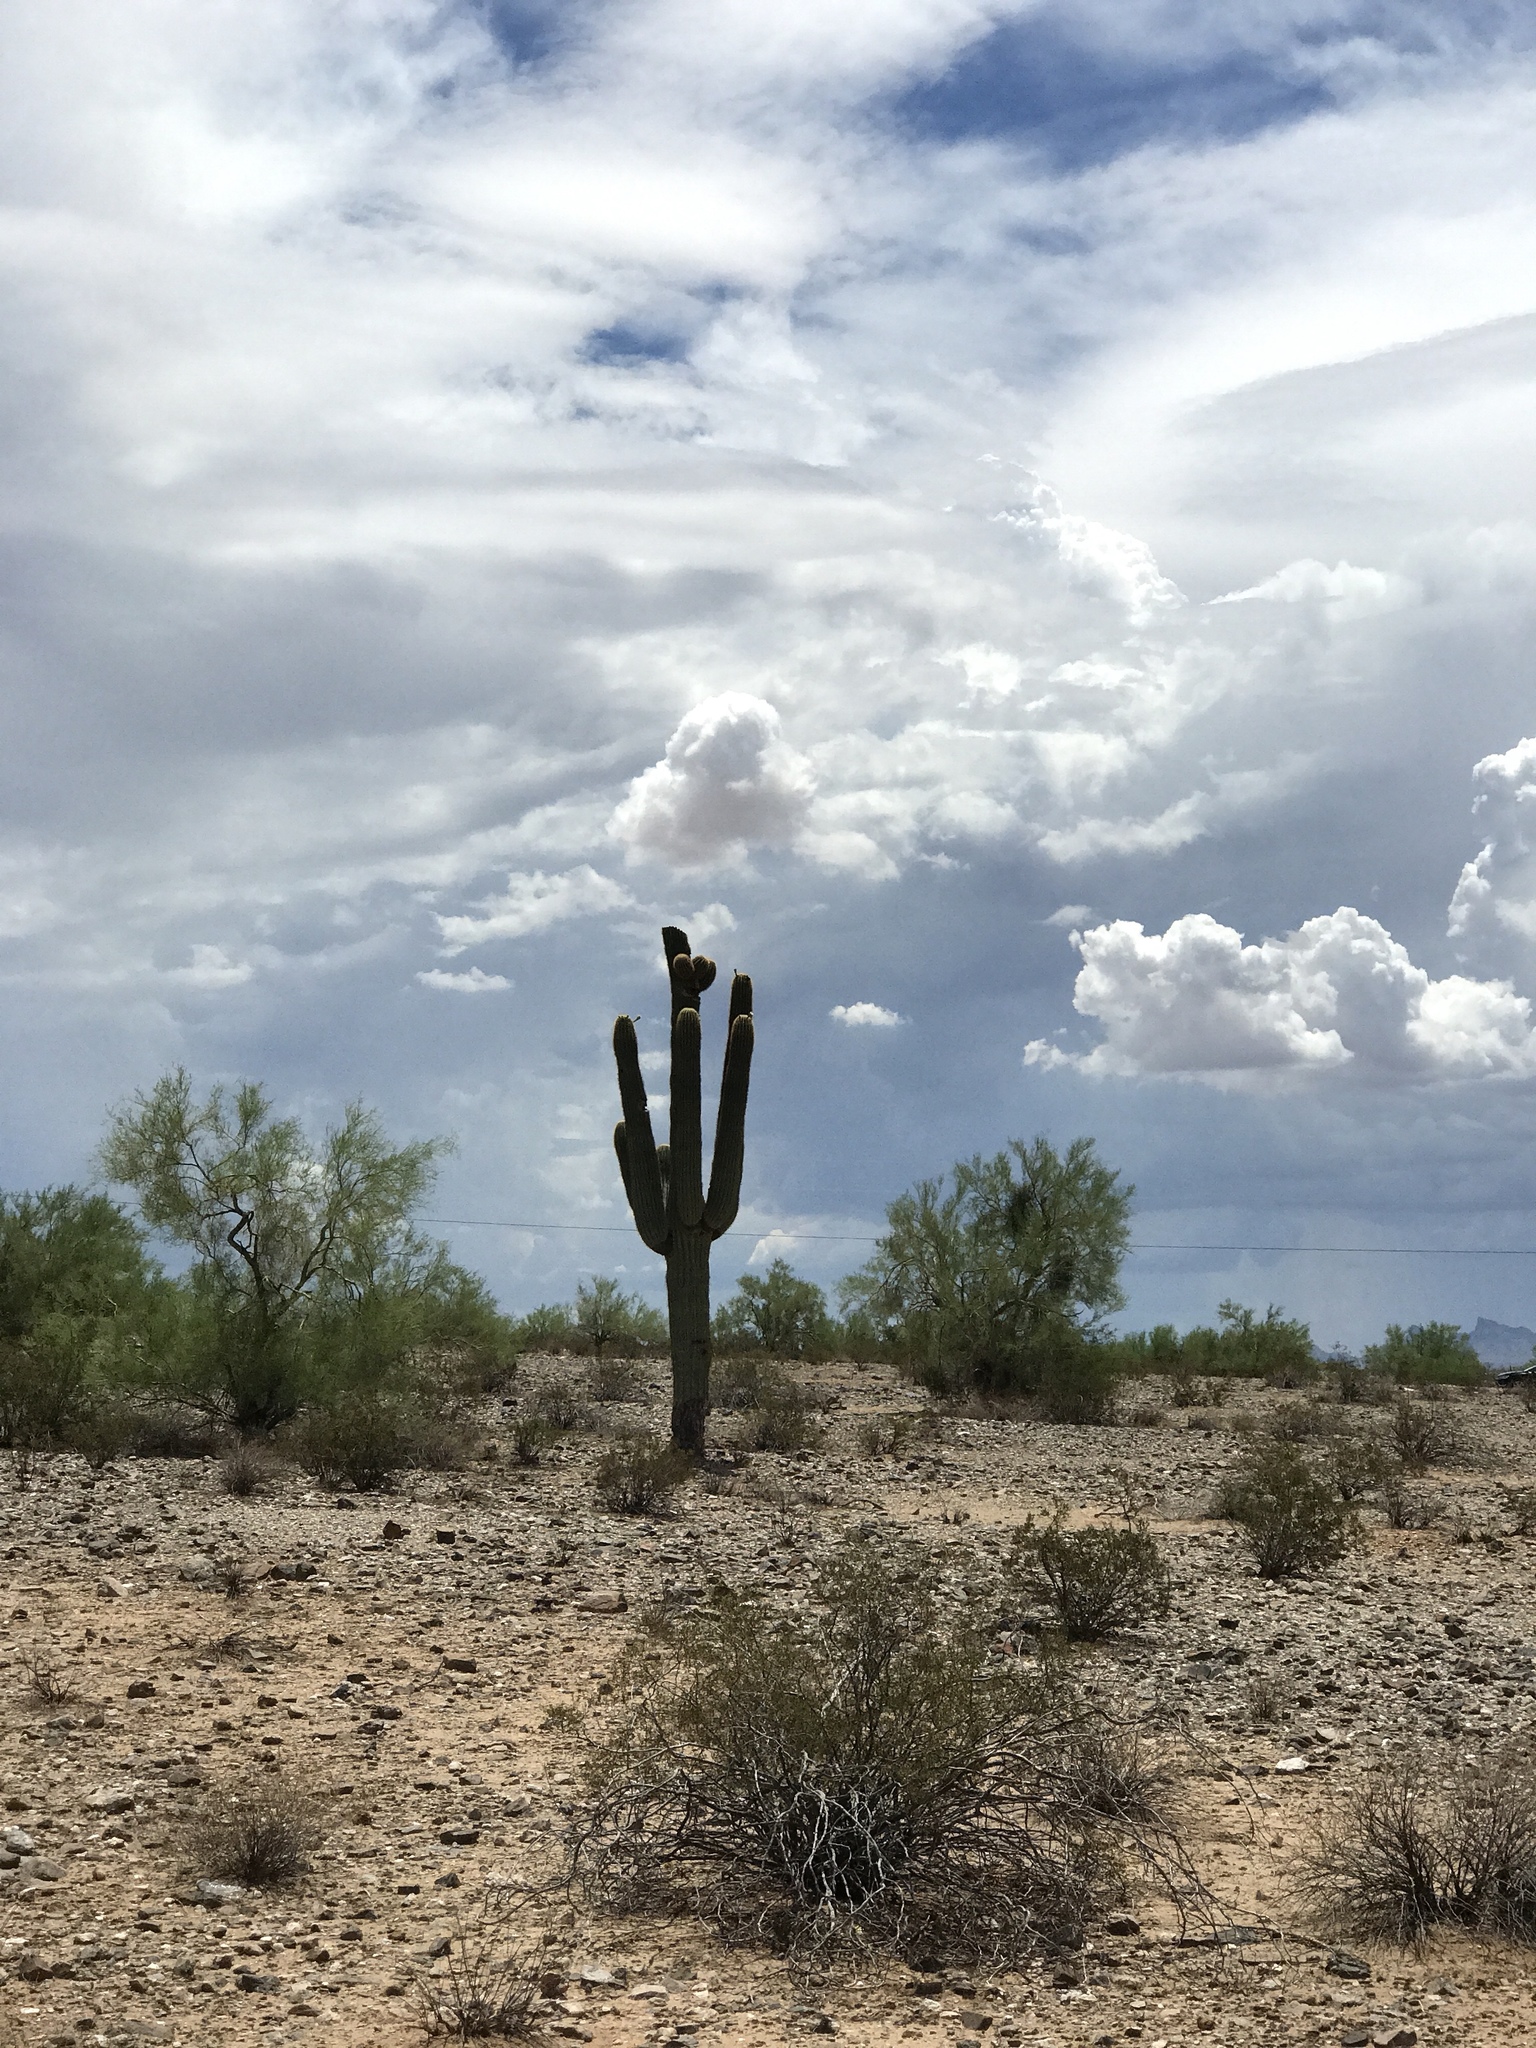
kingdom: Plantae
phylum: Tracheophyta
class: Magnoliopsida
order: Caryophyllales
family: Cactaceae
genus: Carnegiea
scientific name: Carnegiea gigantea
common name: Saguaro
